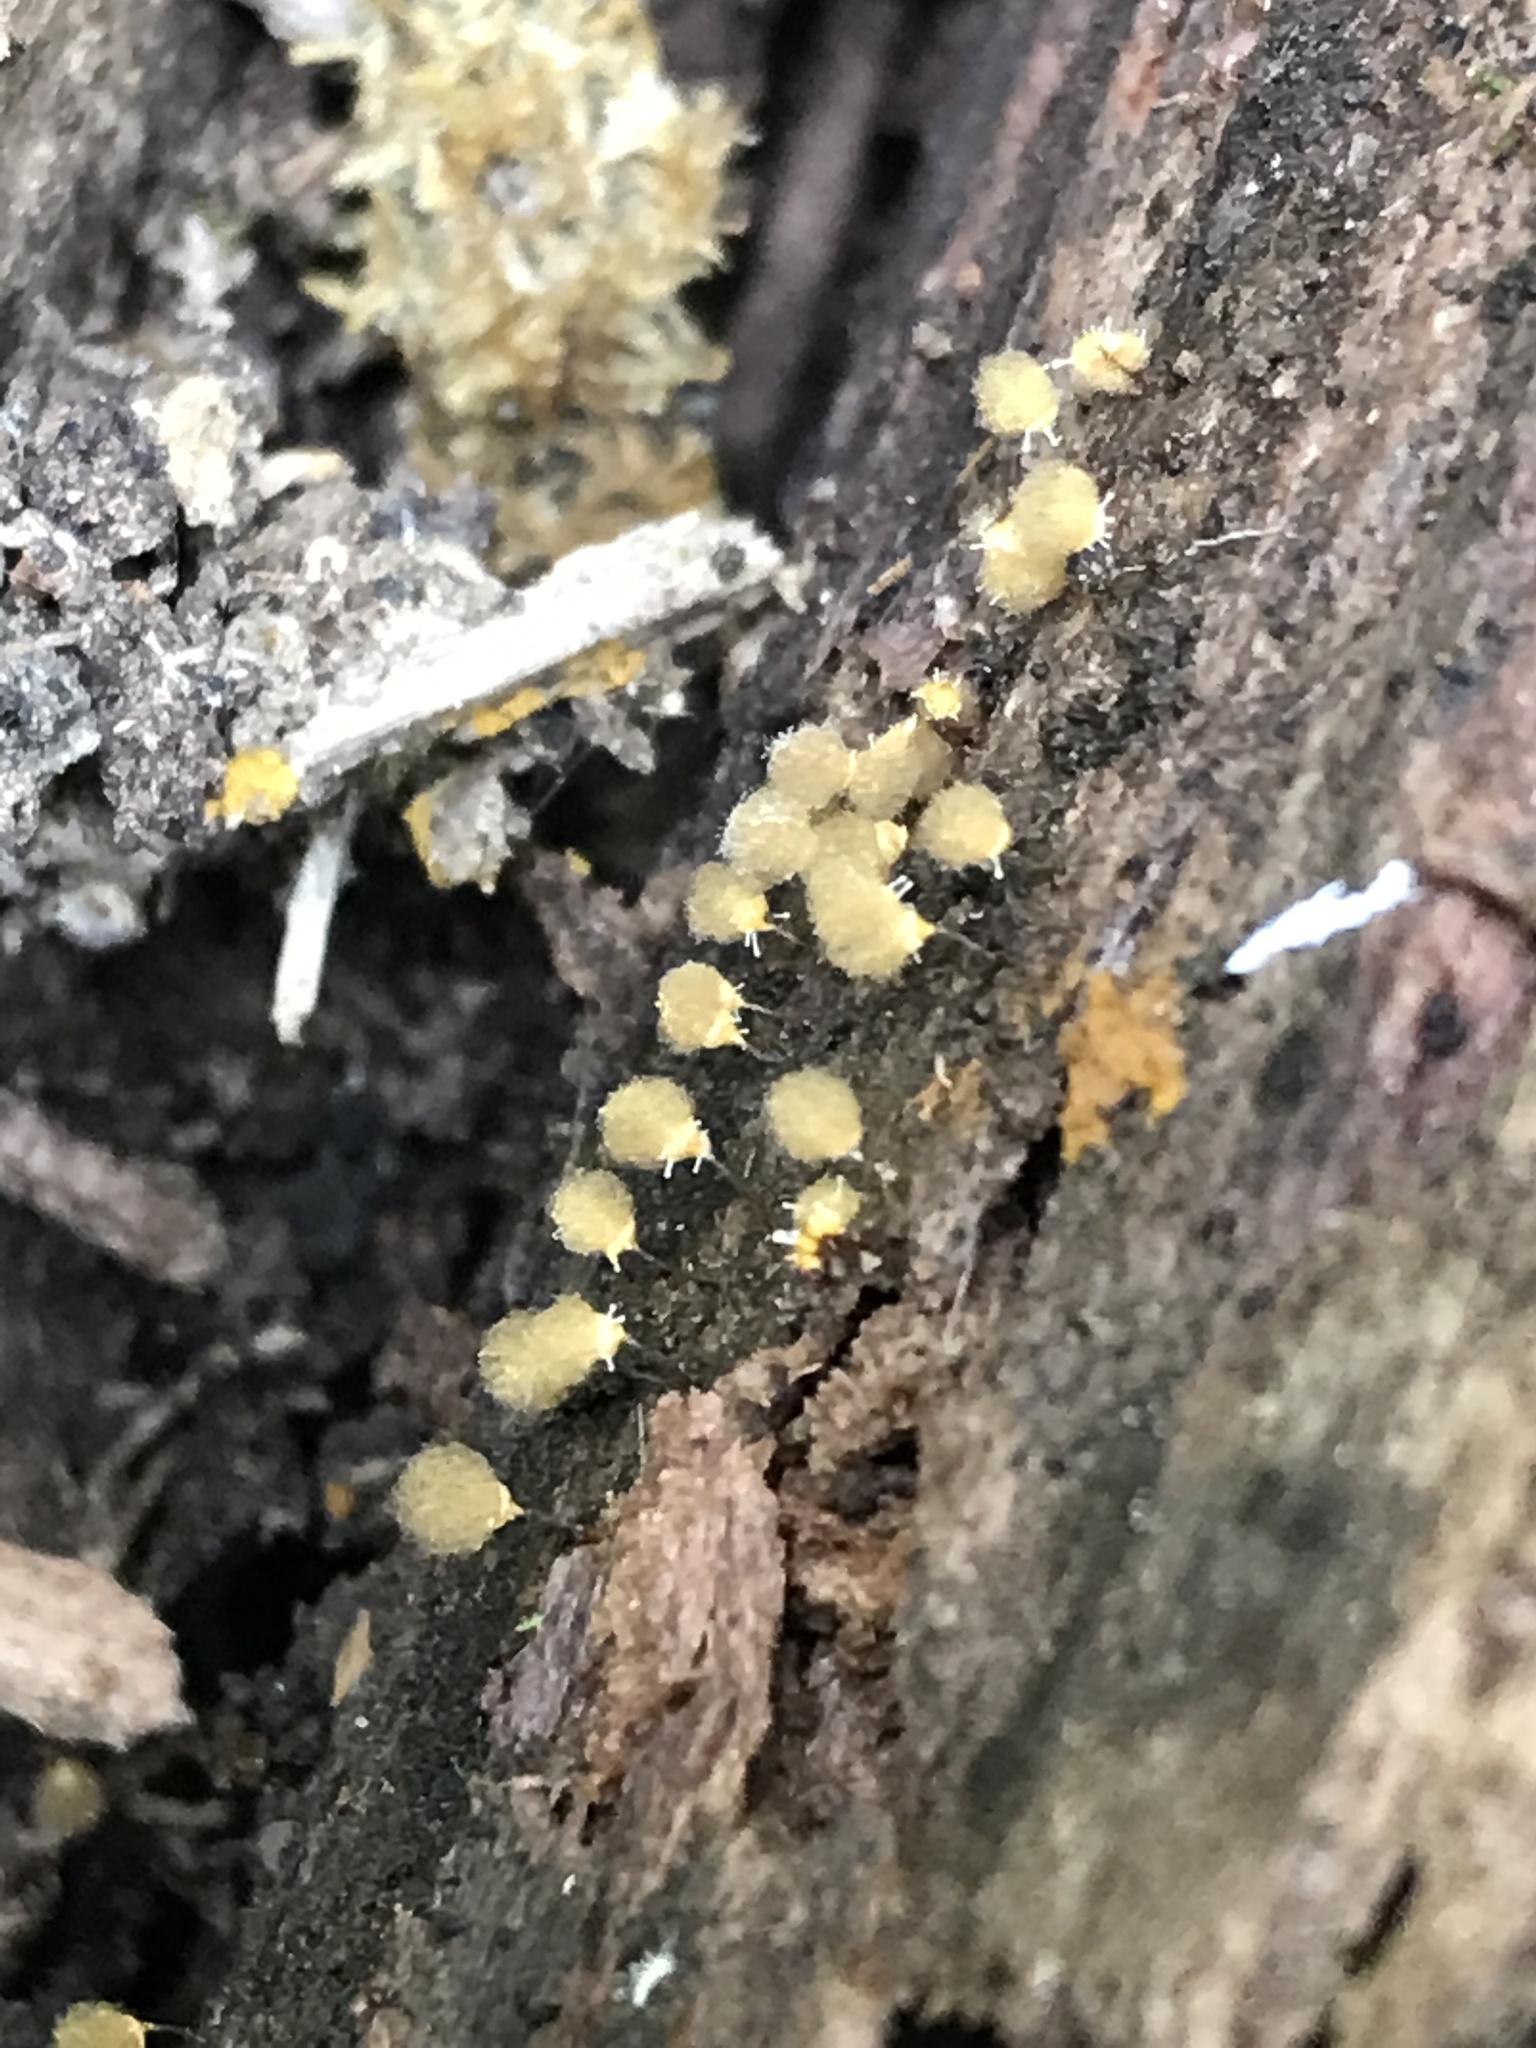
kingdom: Protozoa
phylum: Mycetozoa
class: Myxomycetes
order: Trichiales
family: Arcyriaceae
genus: Hemitrichia
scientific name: Hemitrichia clavata
